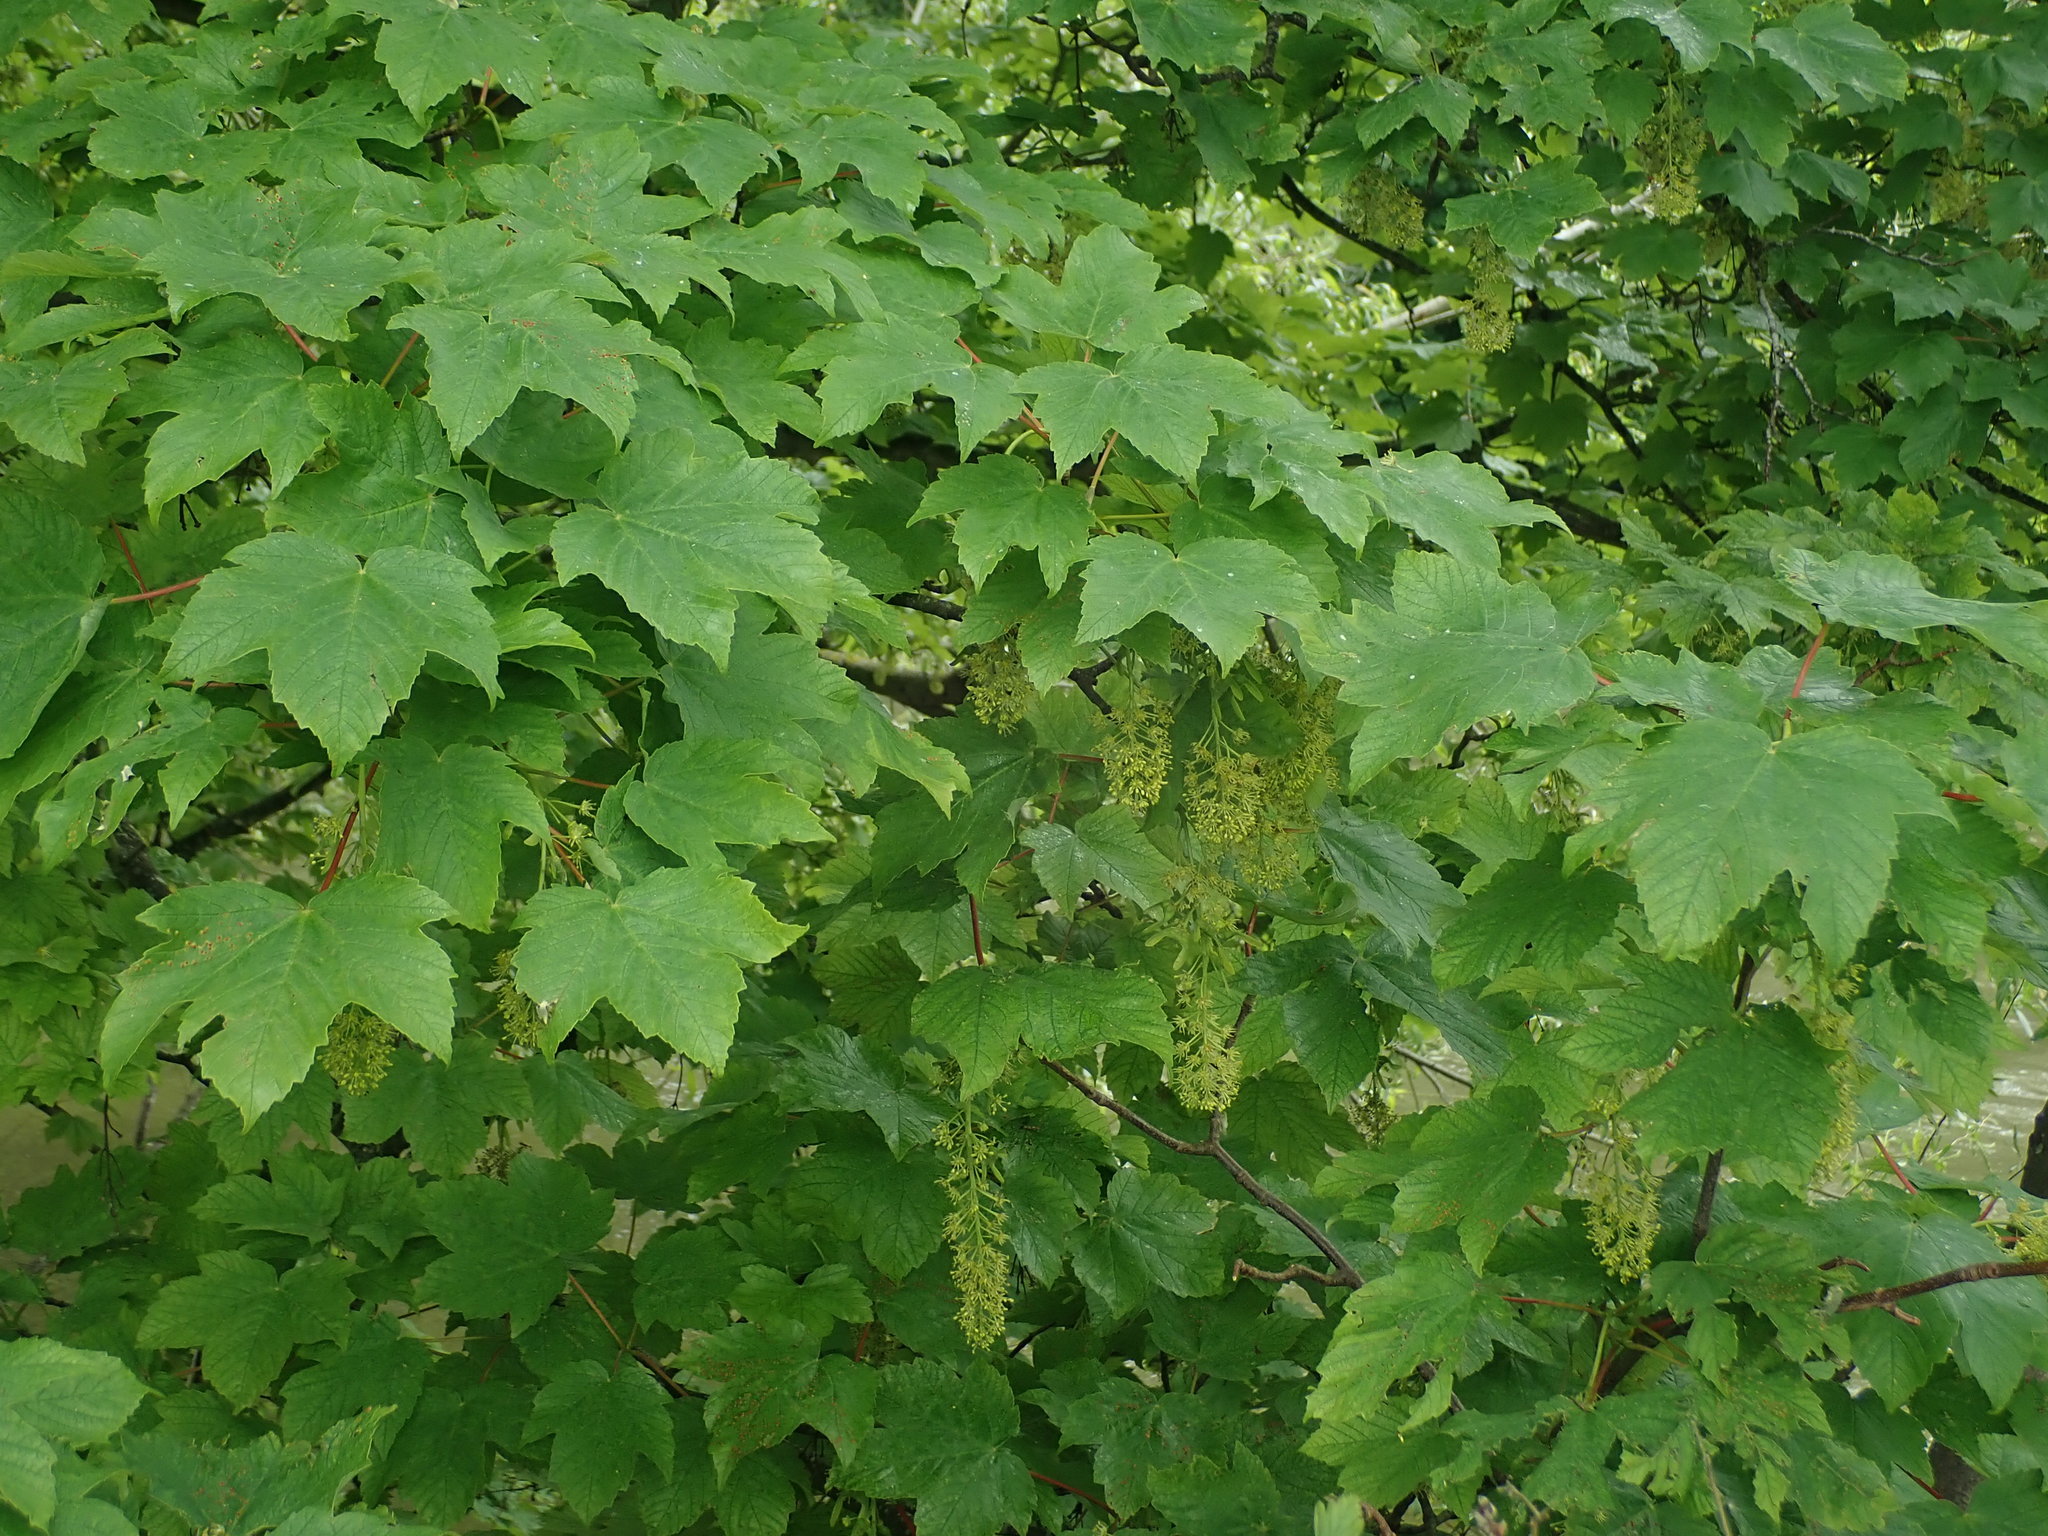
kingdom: Plantae
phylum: Tracheophyta
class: Magnoliopsida
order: Sapindales
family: Sapindaceae
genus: Acer
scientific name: Acer pseudoplatanus
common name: Sycamore
